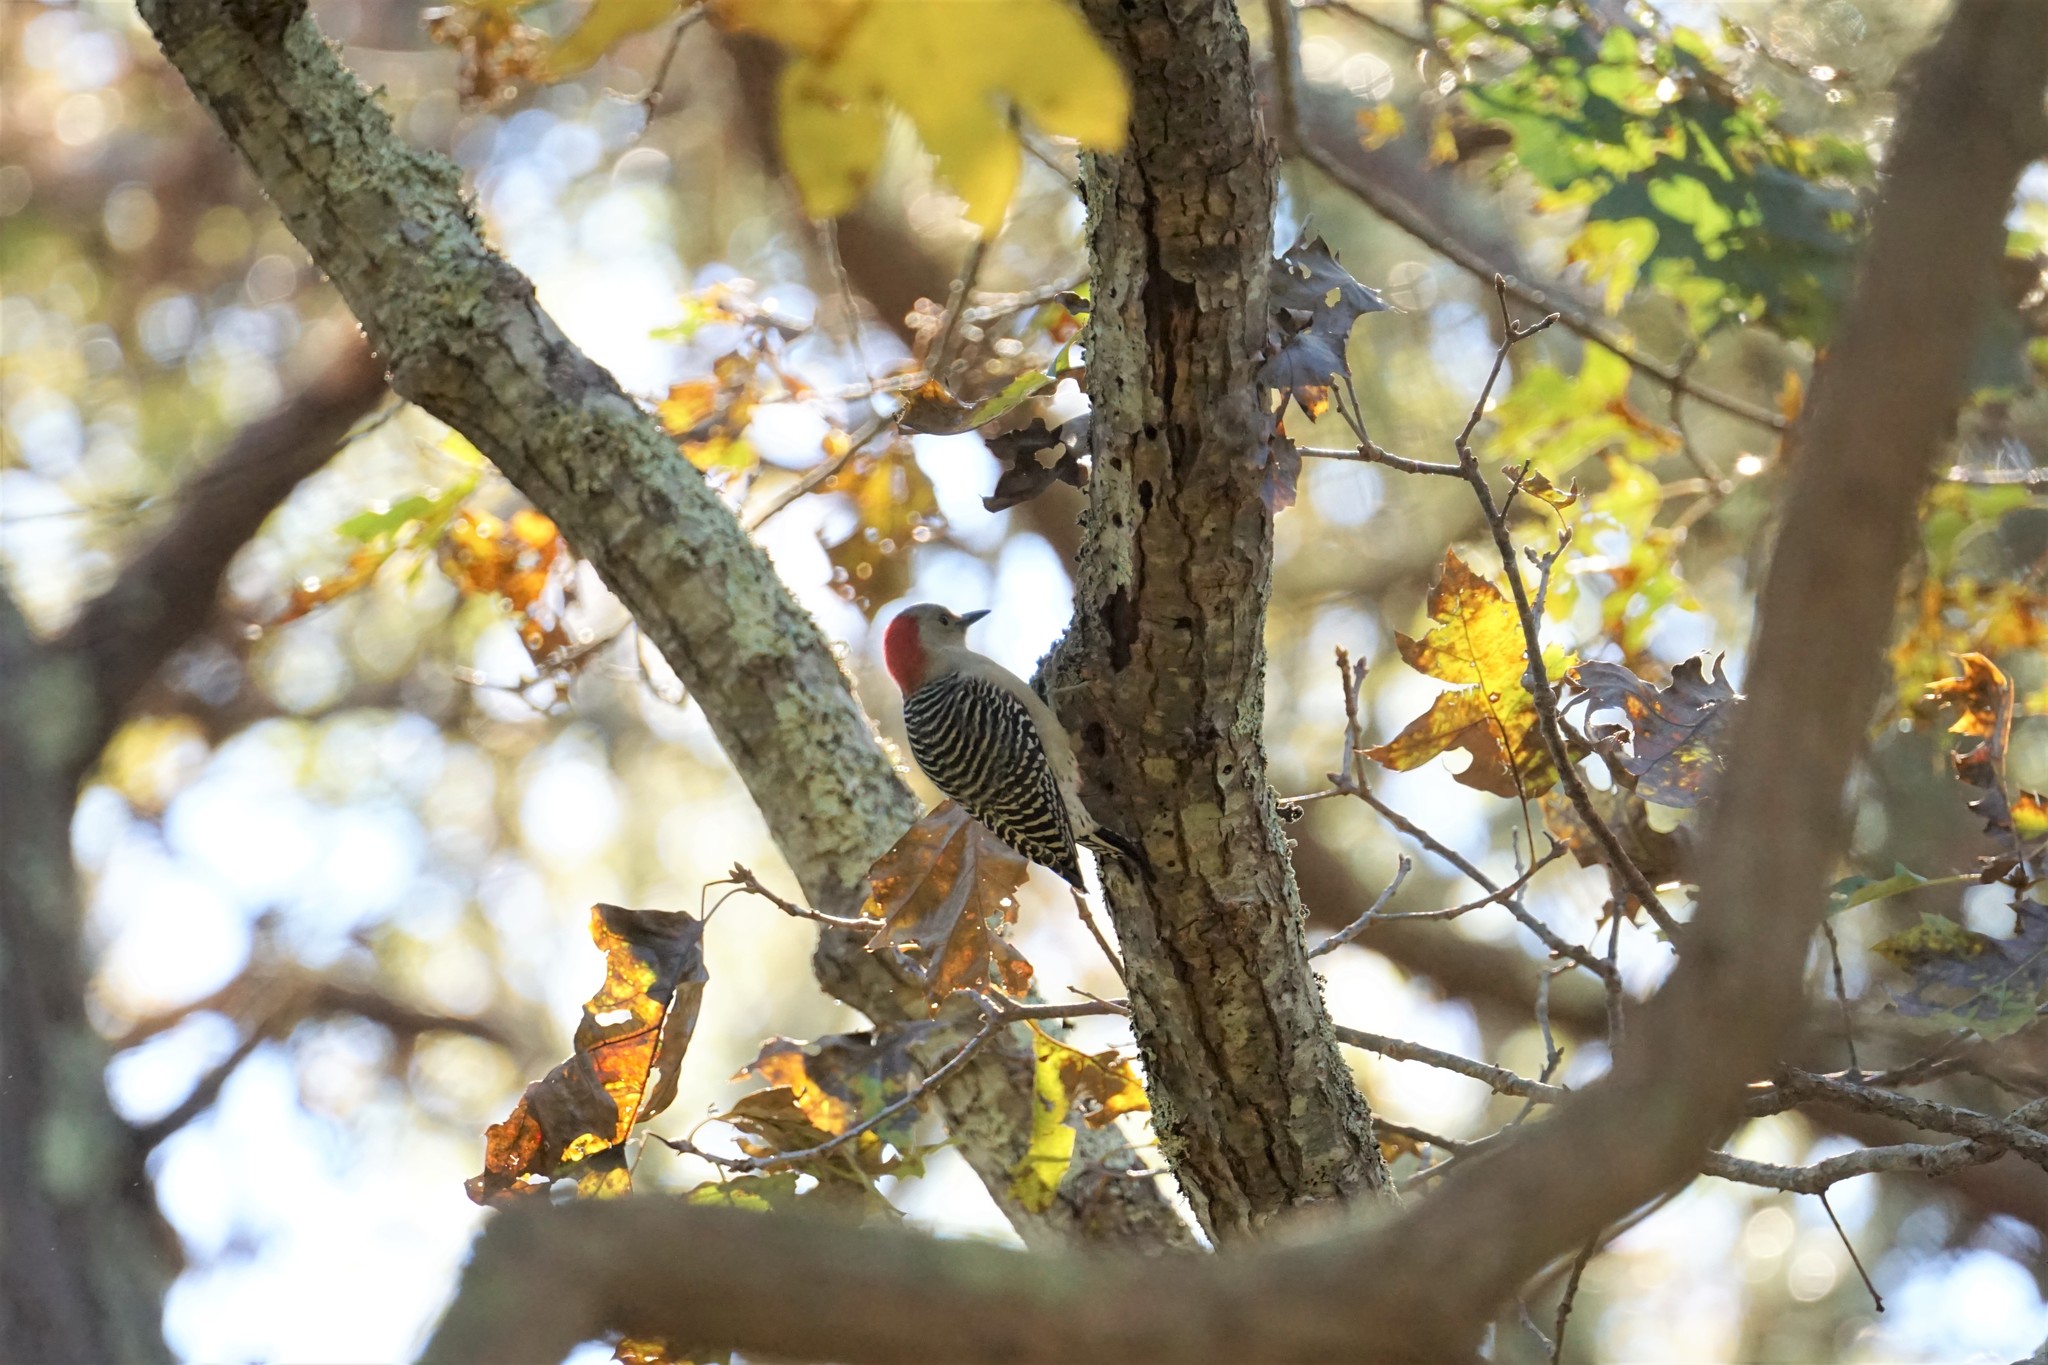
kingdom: Animalia
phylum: Chordata
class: Aves
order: Piciformes
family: Picidae
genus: Melanerpes
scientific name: Melanerpes carolinus
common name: Red-bellied woodpecker
